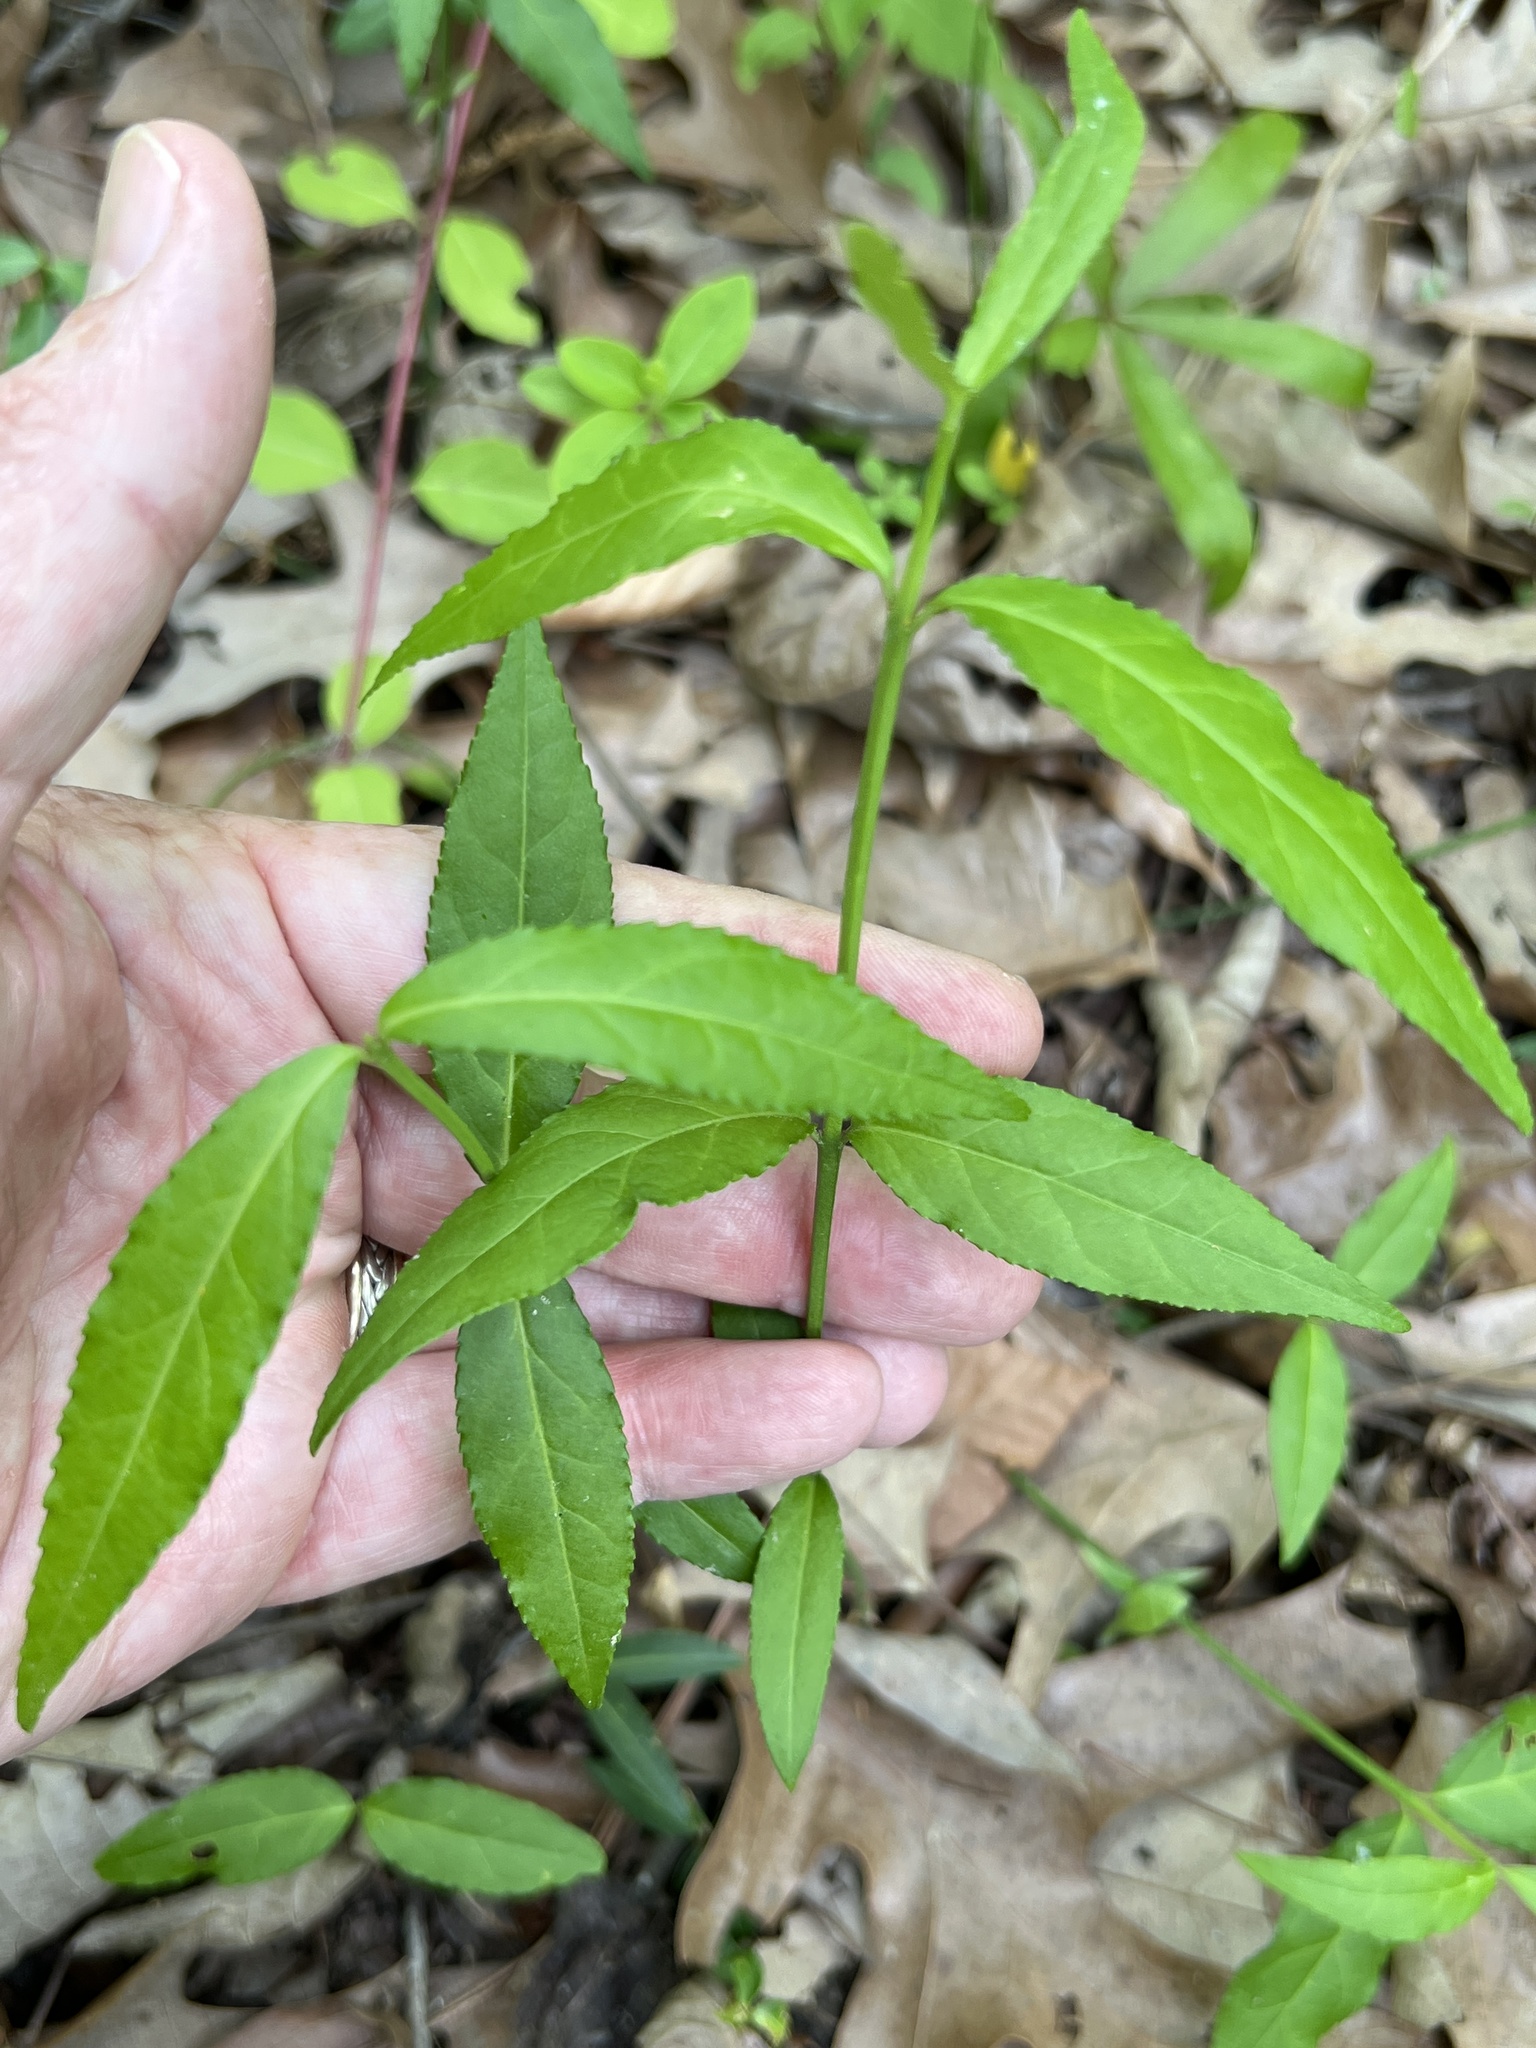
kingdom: Plantae
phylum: Tracheophyta
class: Magnoliopsida
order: Celastrales
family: Celastraceae
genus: Euonymus
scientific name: Euonymus americanus
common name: Bursting-heart
